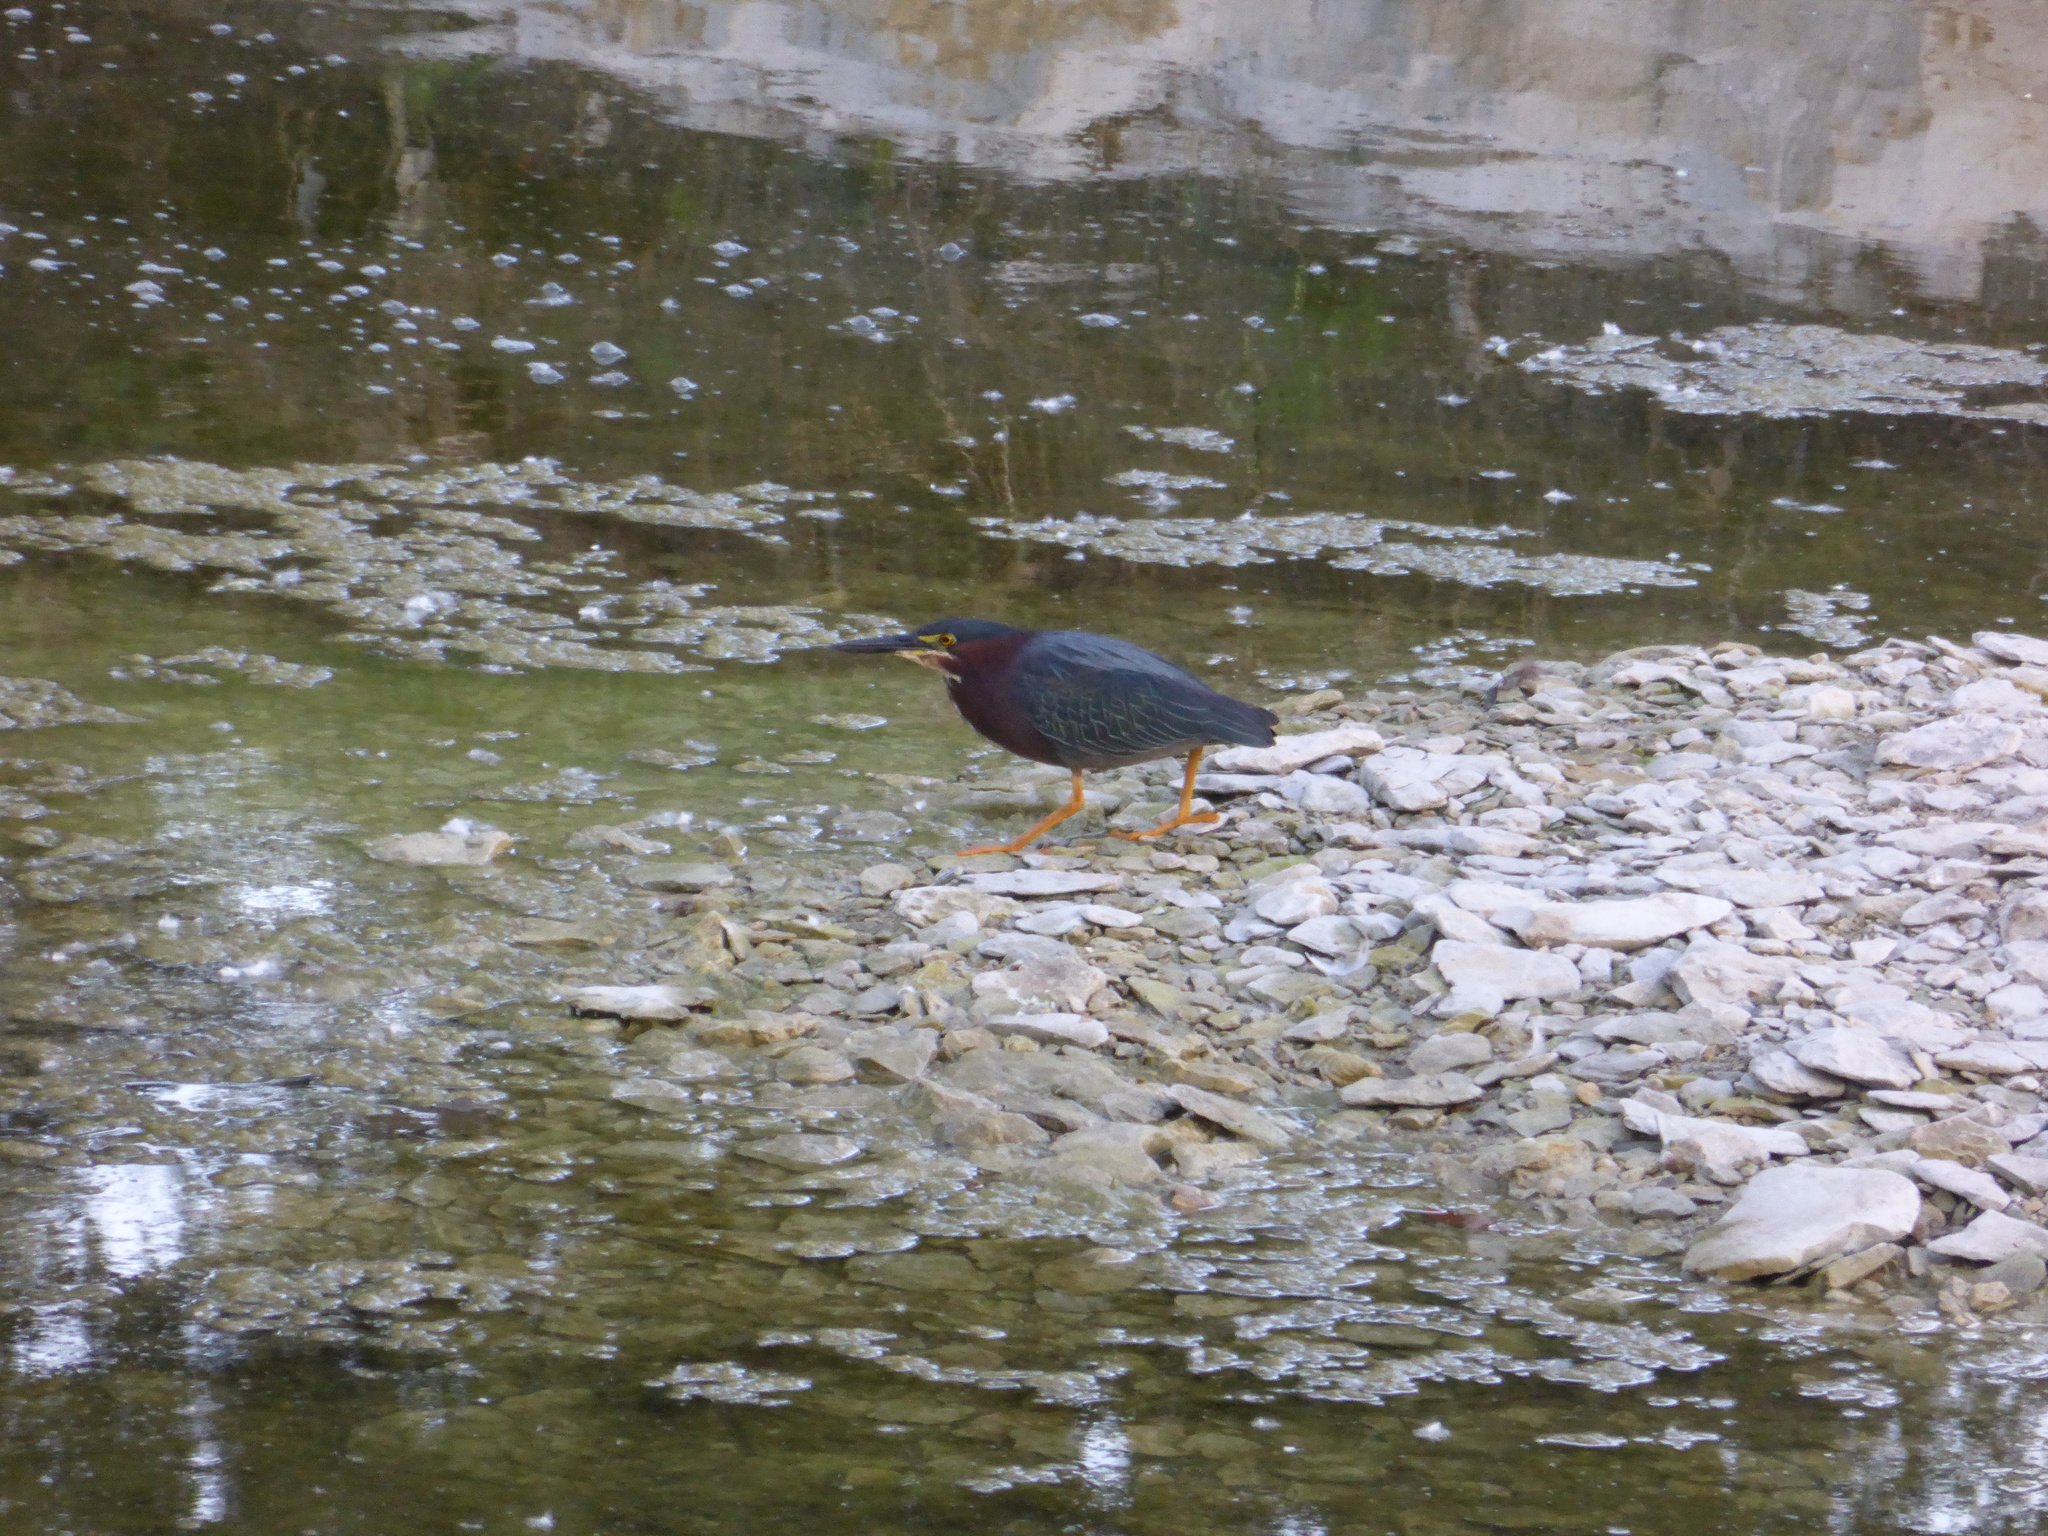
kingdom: Animalia
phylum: Chordata
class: Aves
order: Pelecaniformes
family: Ardeidae
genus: Butorides
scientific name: Butorides virescens
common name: Green heron
